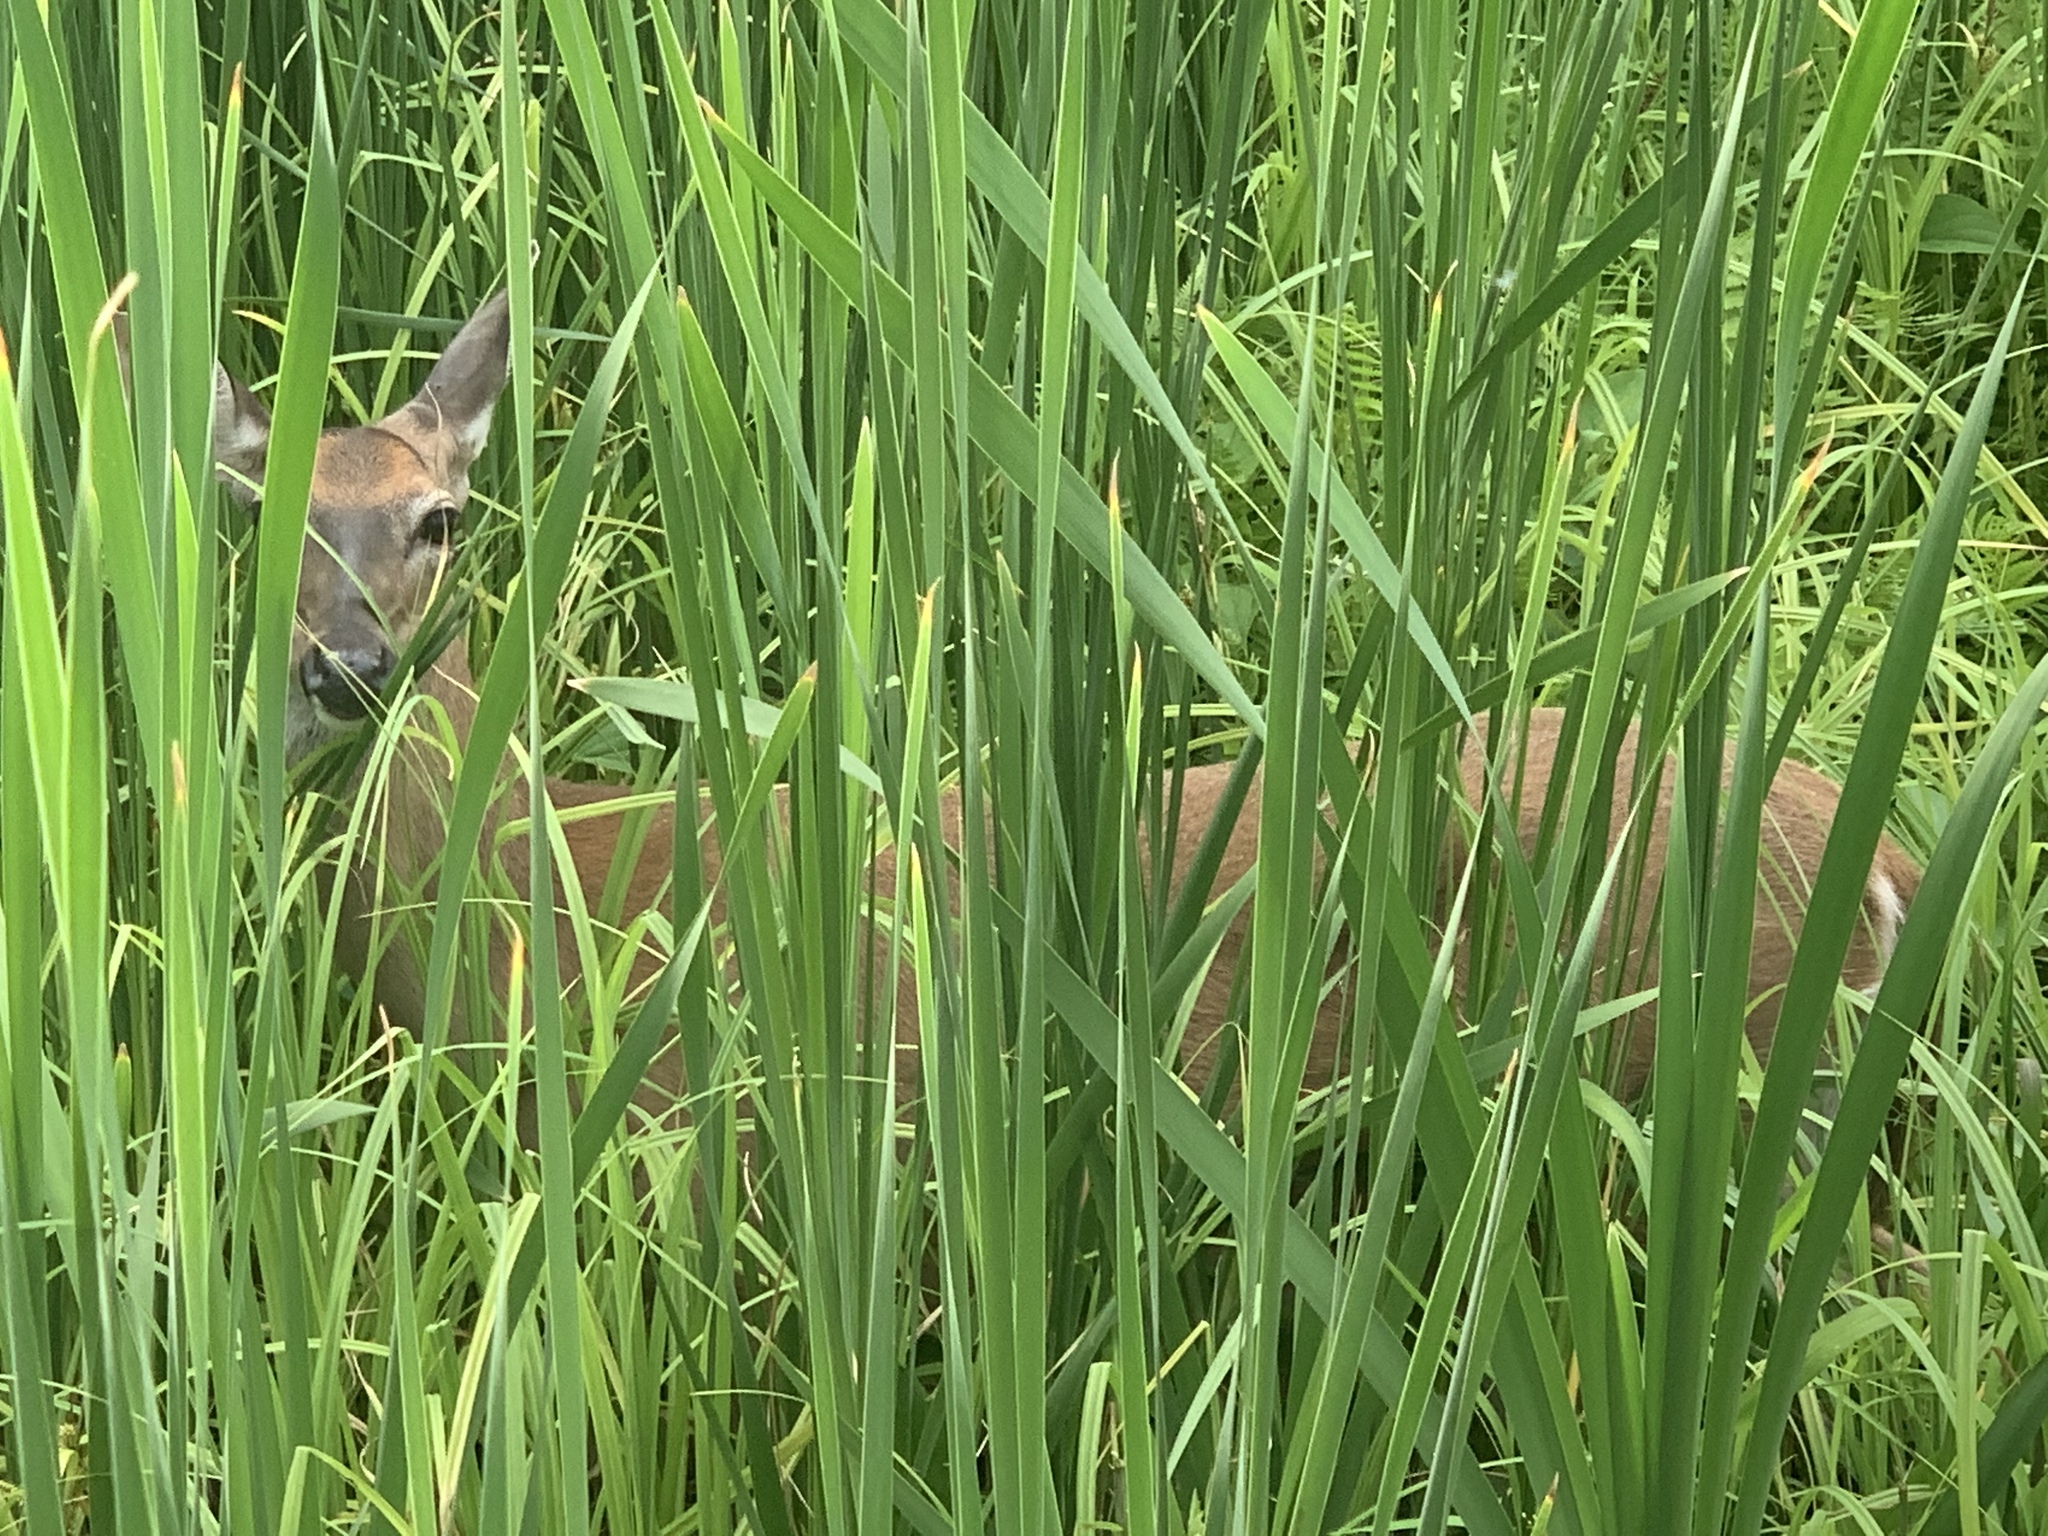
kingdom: Animalia
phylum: Chordata
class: Mammalia
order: Artiodactyla
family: Cervidae
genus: Odocoileus
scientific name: Odocoileus virginianus
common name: White-tailed deer
